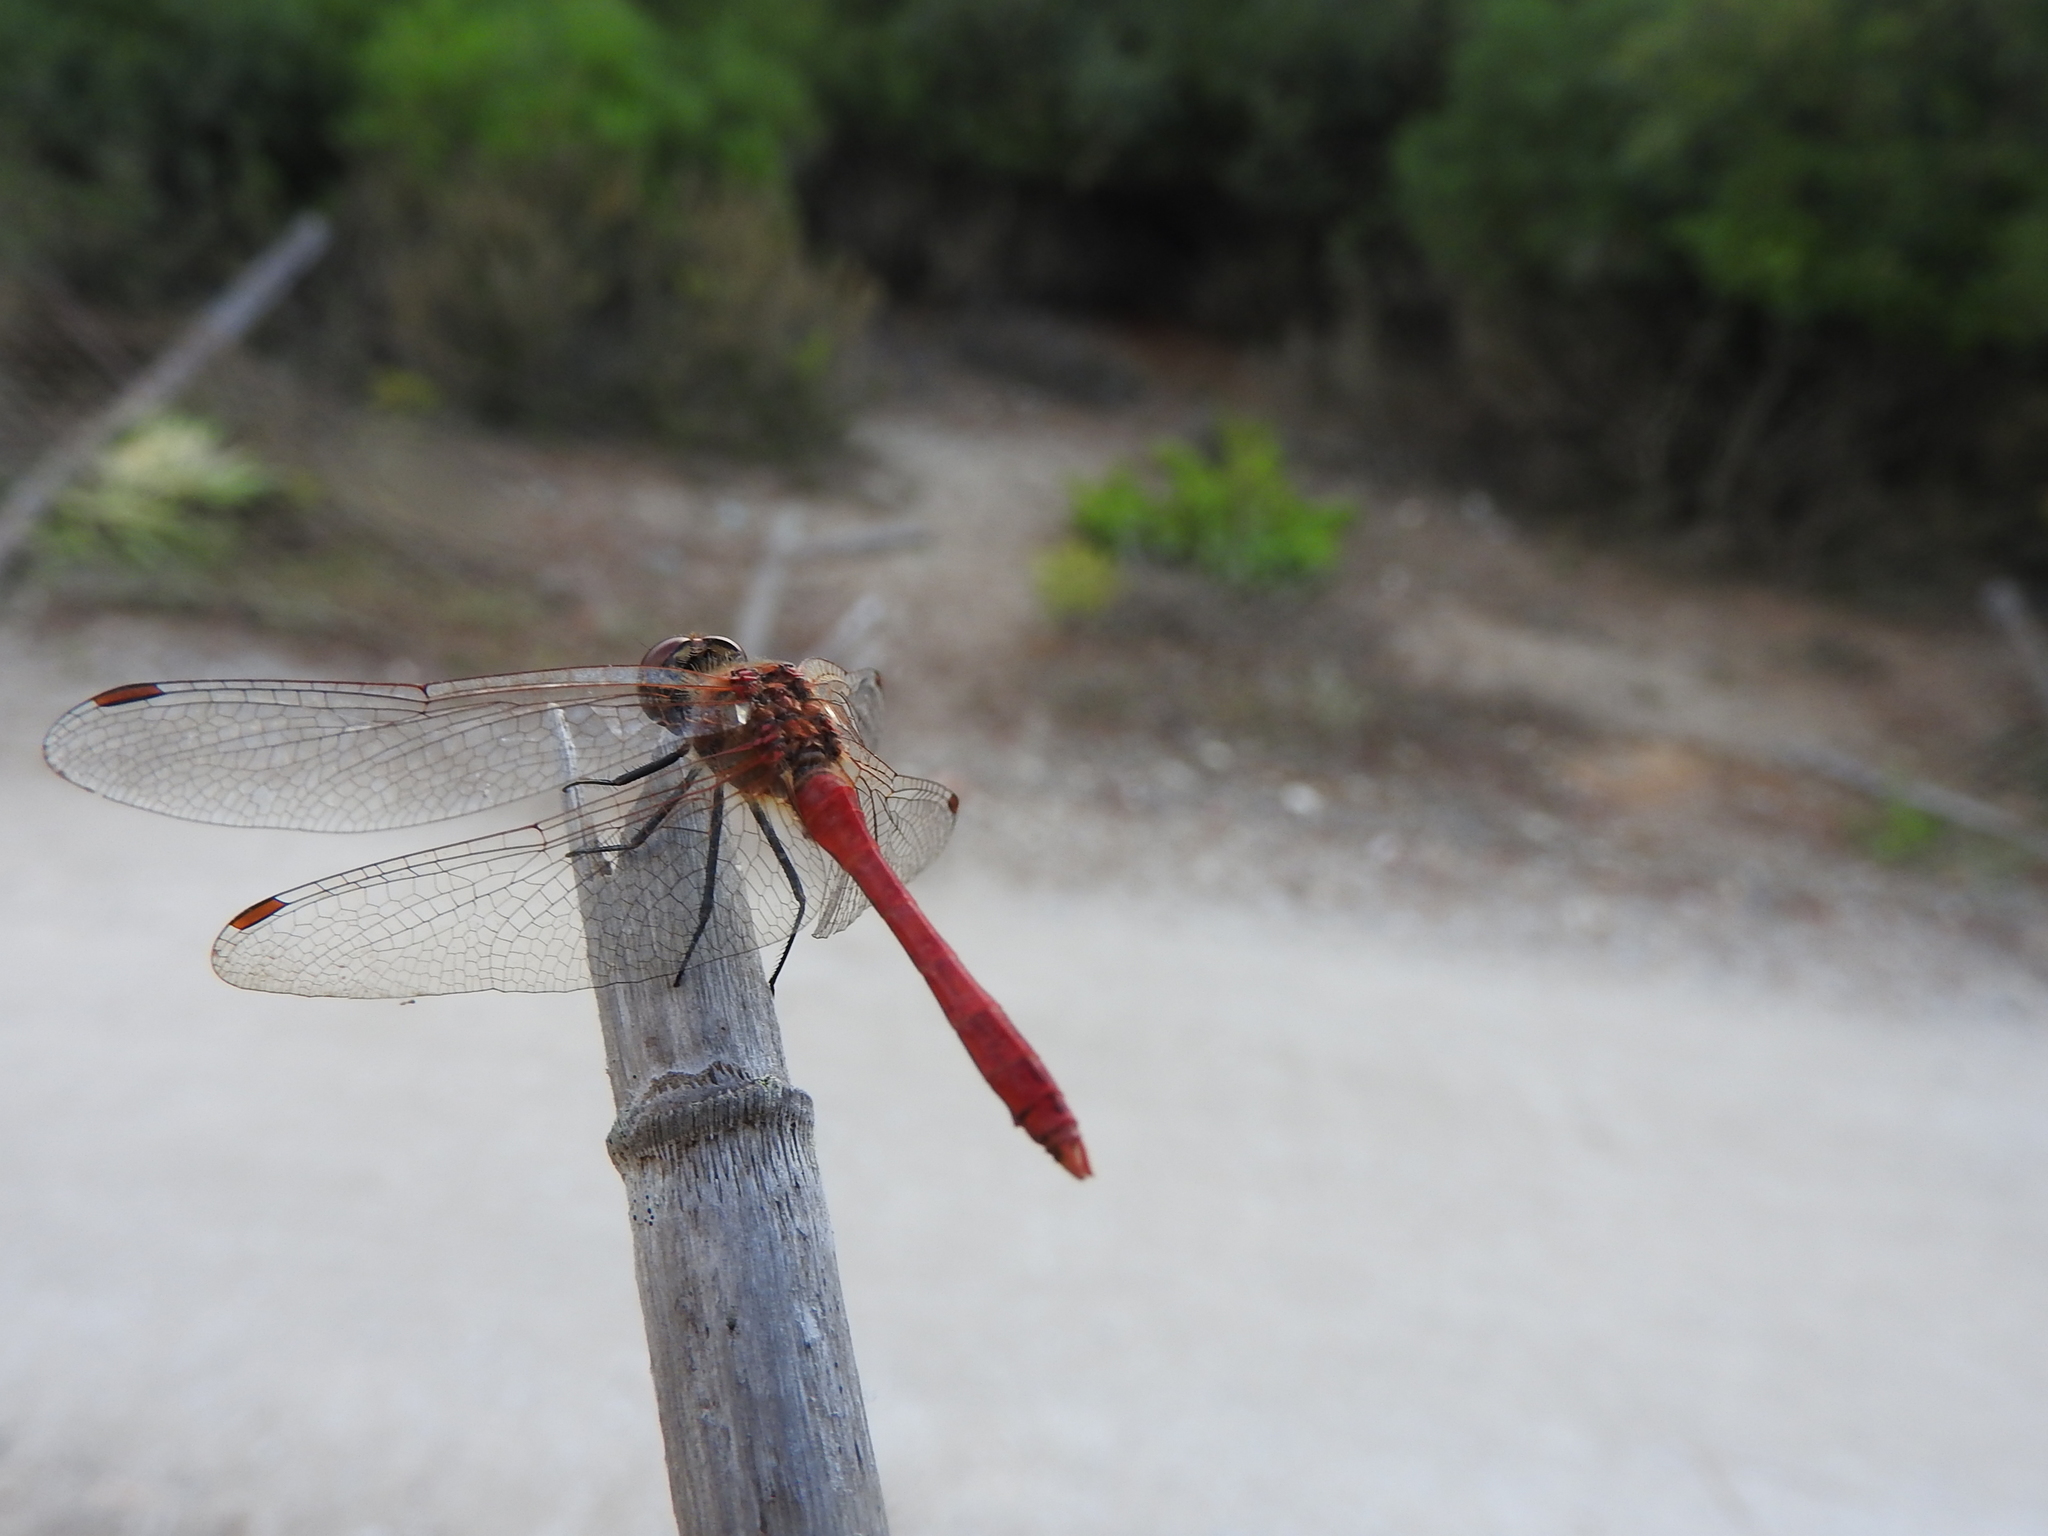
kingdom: Animalia
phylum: Arthropoda
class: Insecta
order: Odonata
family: Libellulidae
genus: Sympetrum
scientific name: Sympetrum sanguineum
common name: Ruddy darter
